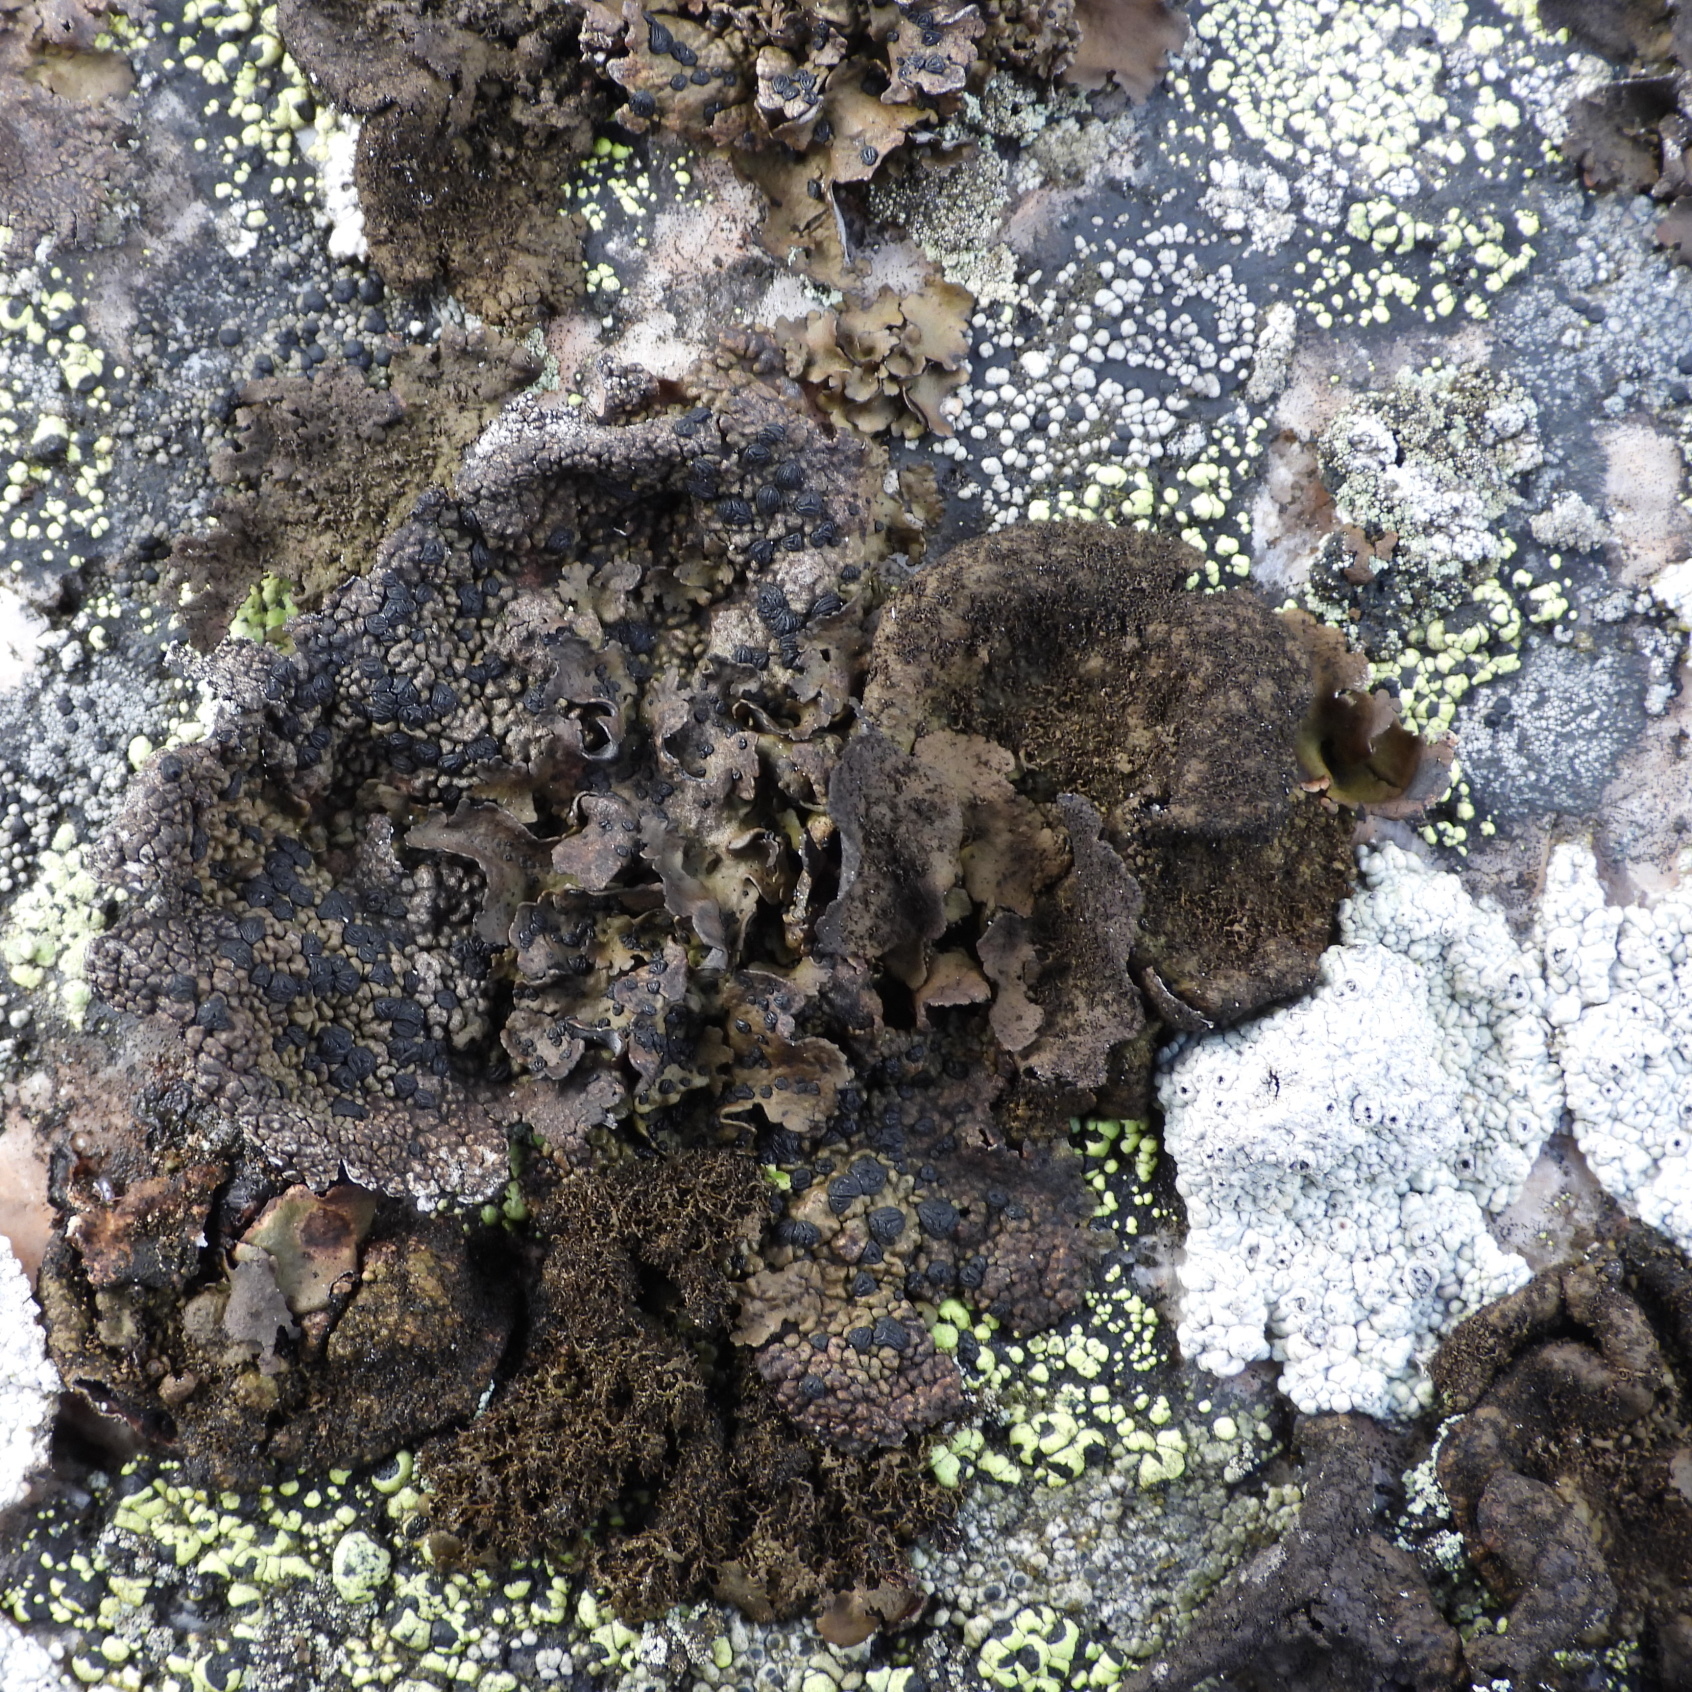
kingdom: Fungi
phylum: Ascomycota
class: Lecanoromycetes
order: Umbilicariales
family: Umbilicariaceae
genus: Umbilicaria
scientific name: Umbilicaria deusta
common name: Peppered rock tripe
